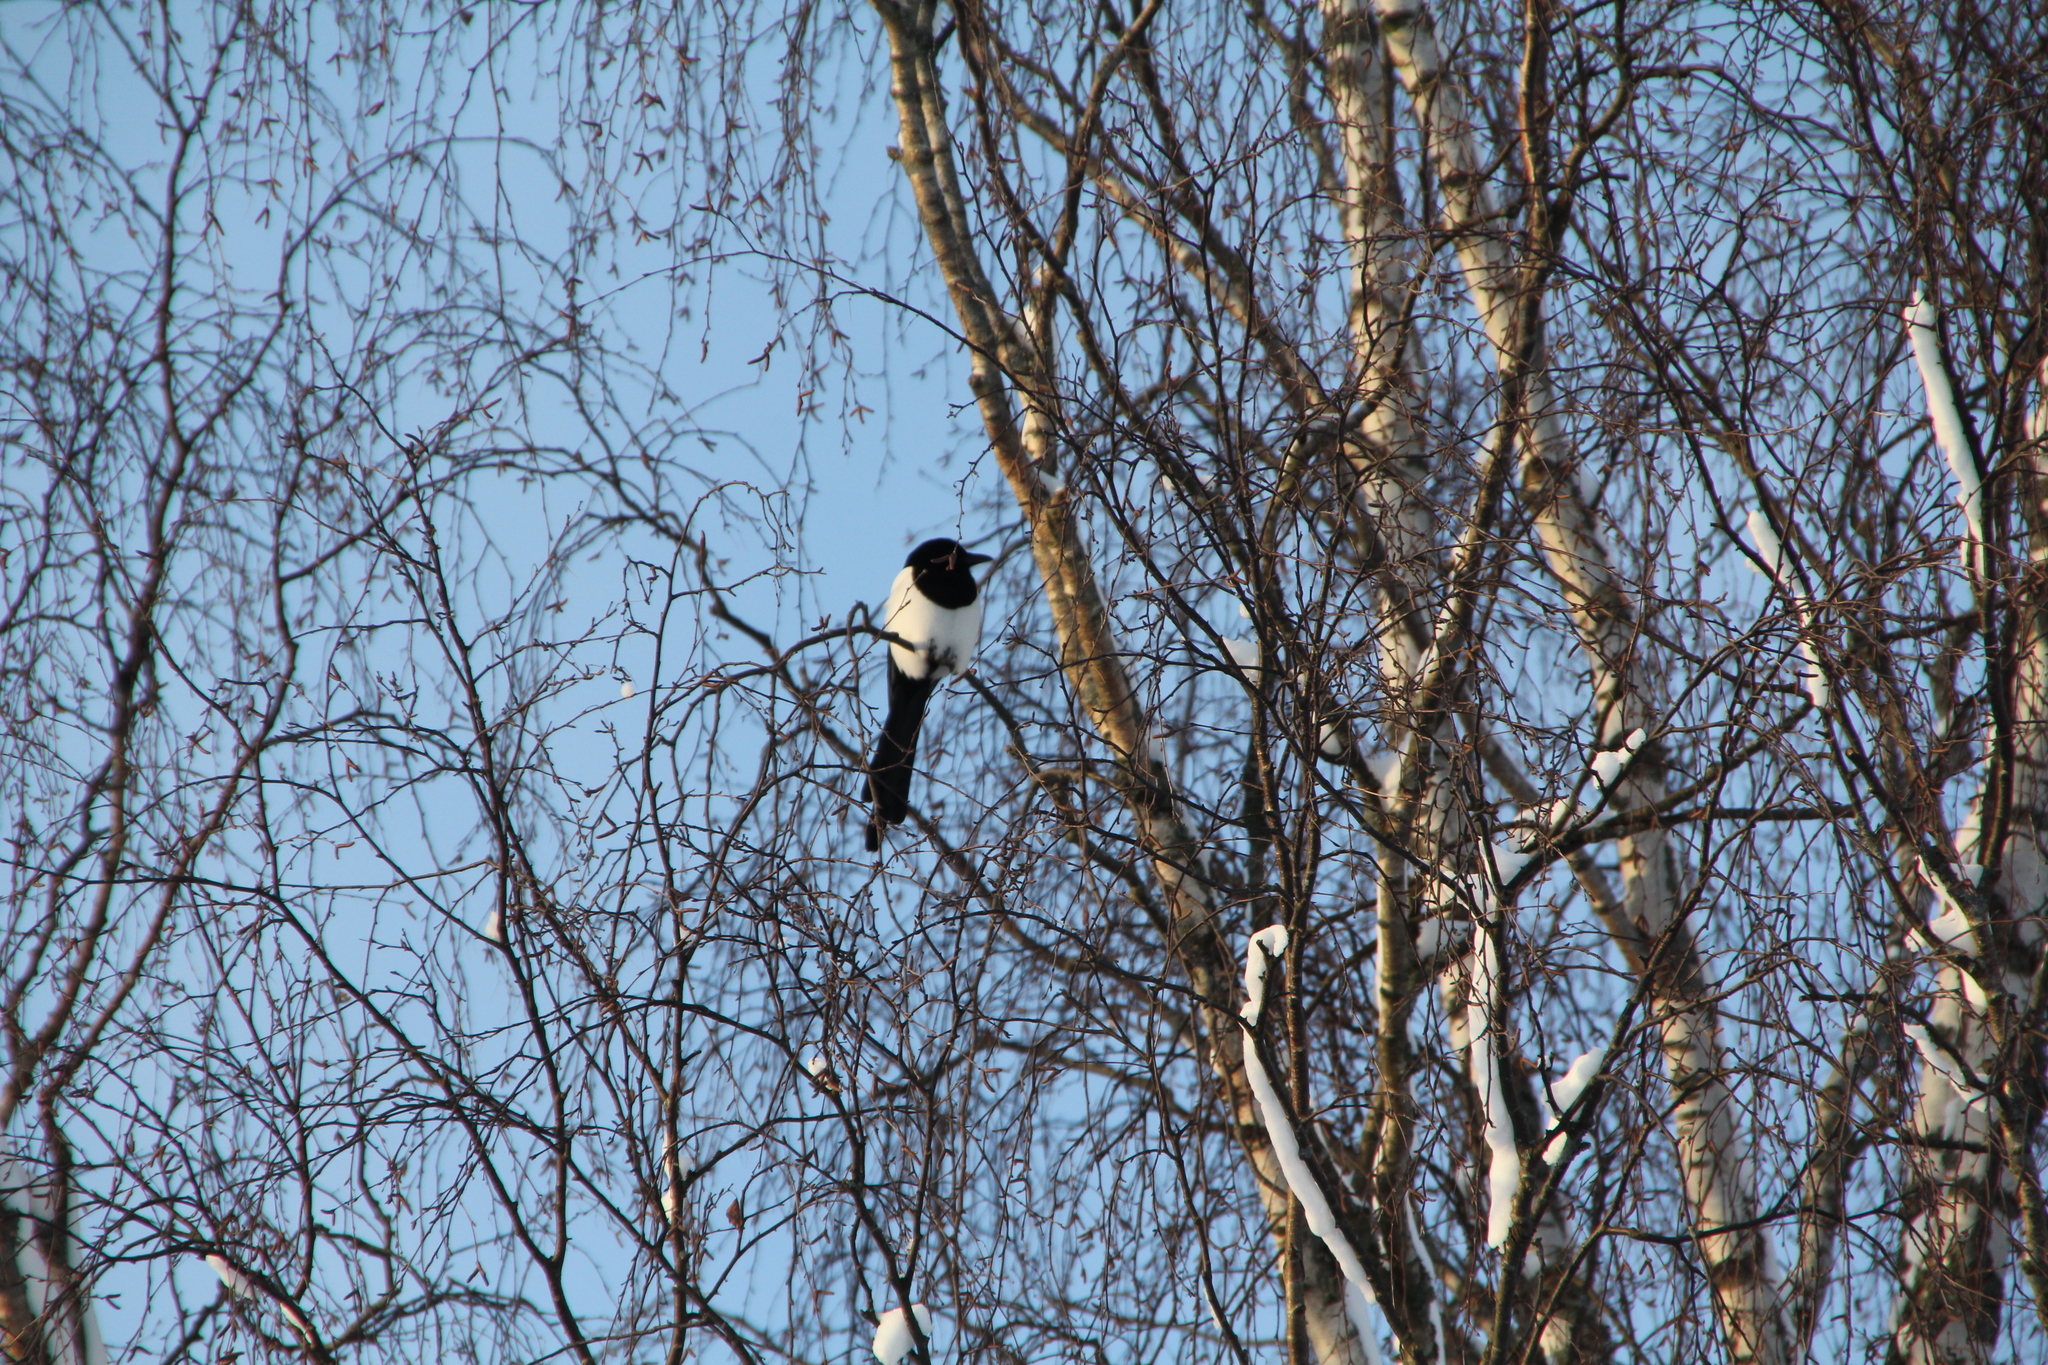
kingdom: Animalia
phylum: Chordata
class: Aves
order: Passeriformes
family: Corvidae
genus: Pica
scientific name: Pica pica
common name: Eurasian magpie
